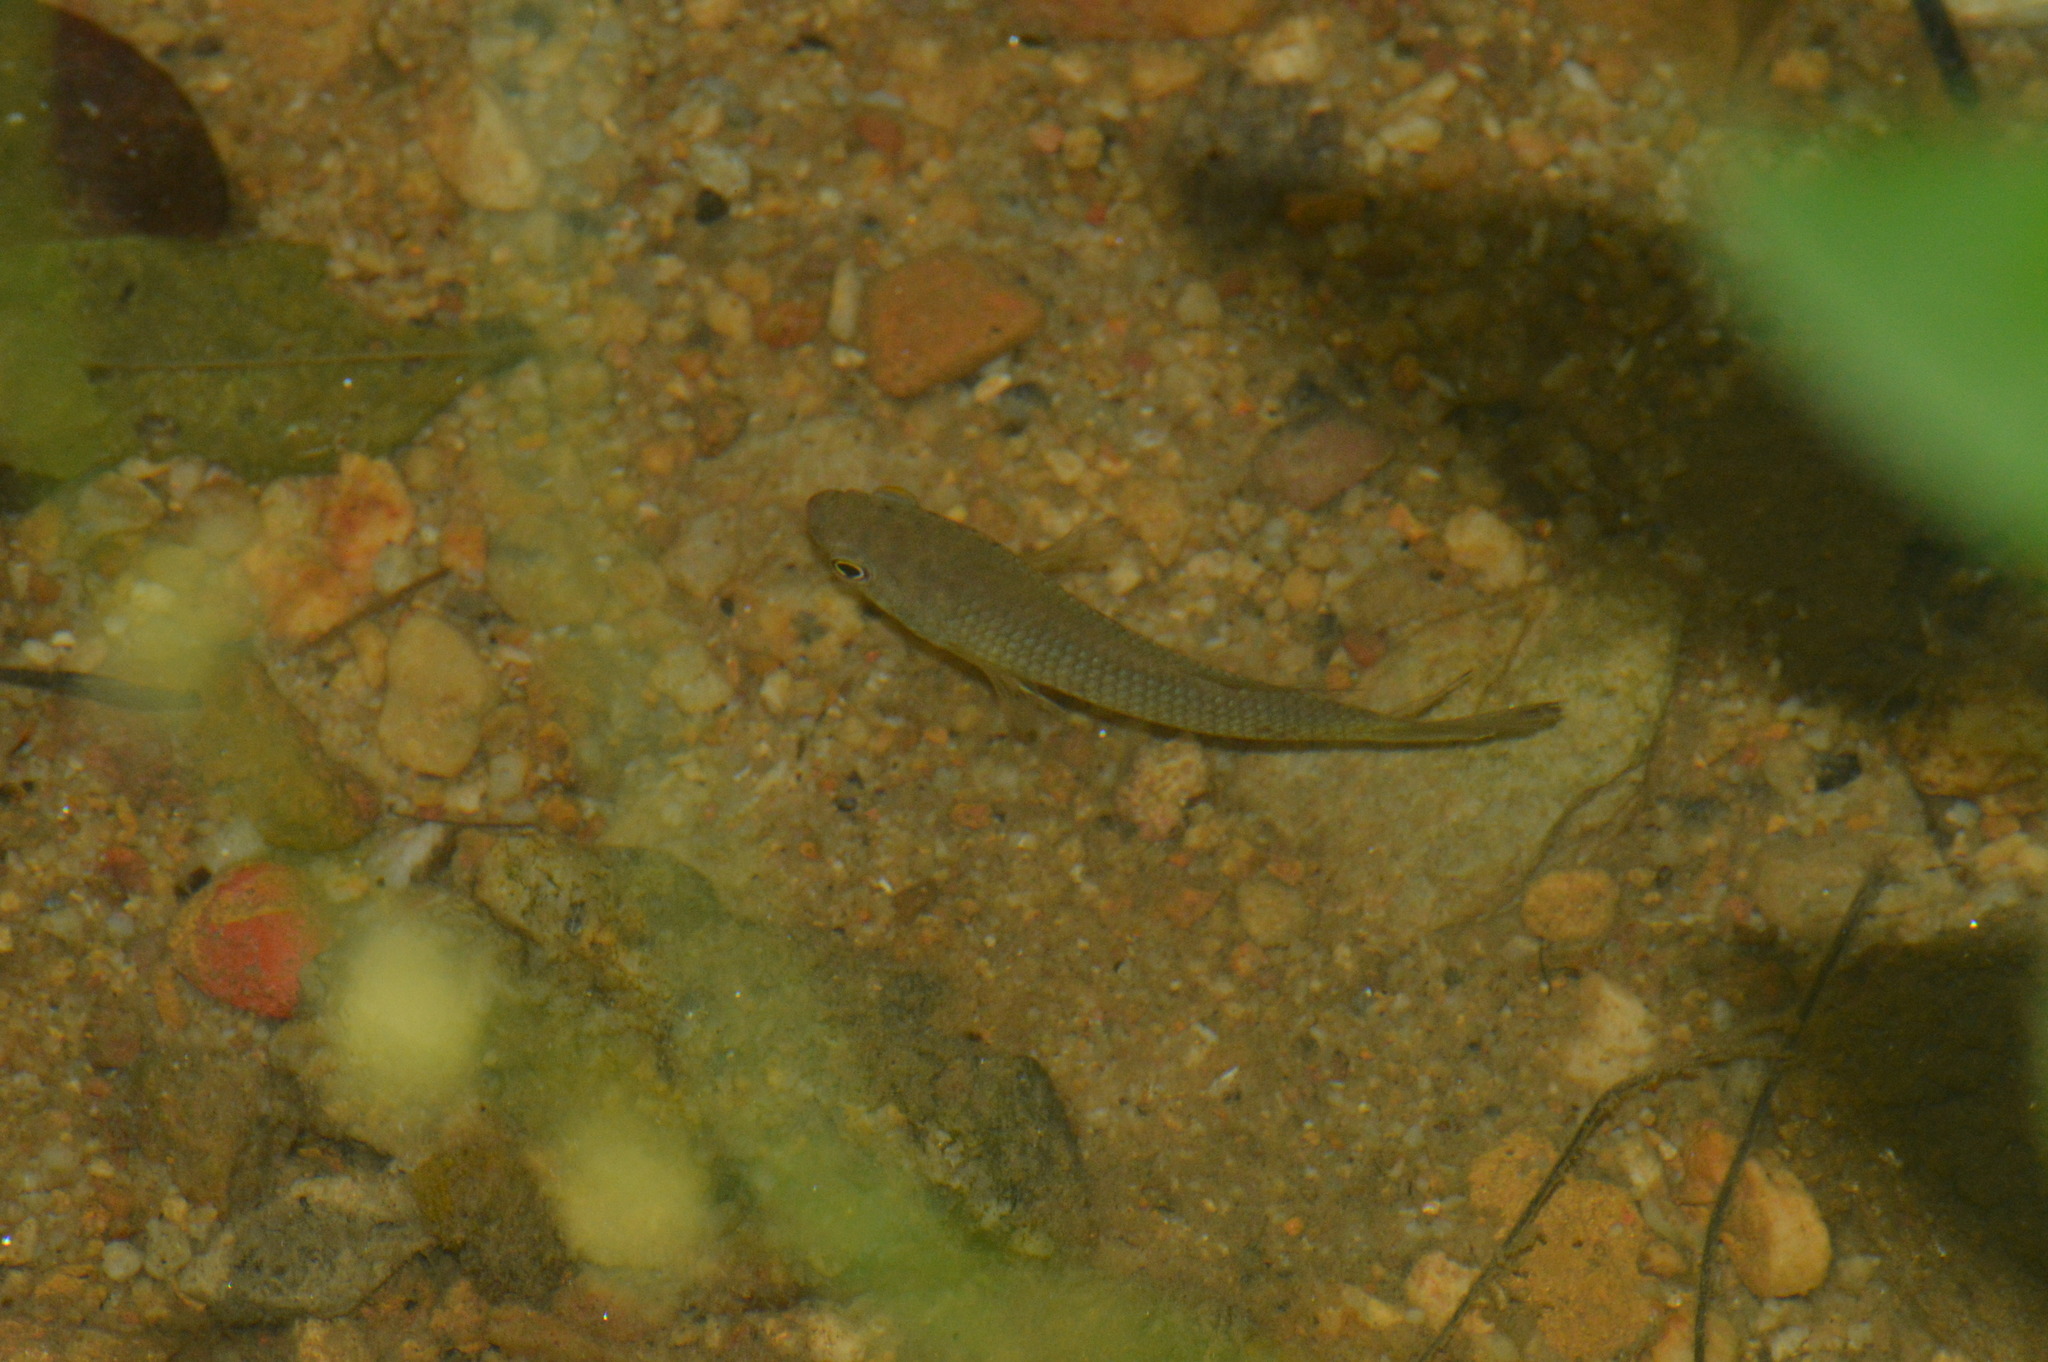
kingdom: Animalia
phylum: Chordata
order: Perciformes
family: Osphronemidae
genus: Betta
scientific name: Betta pugnax
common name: Penang betta
